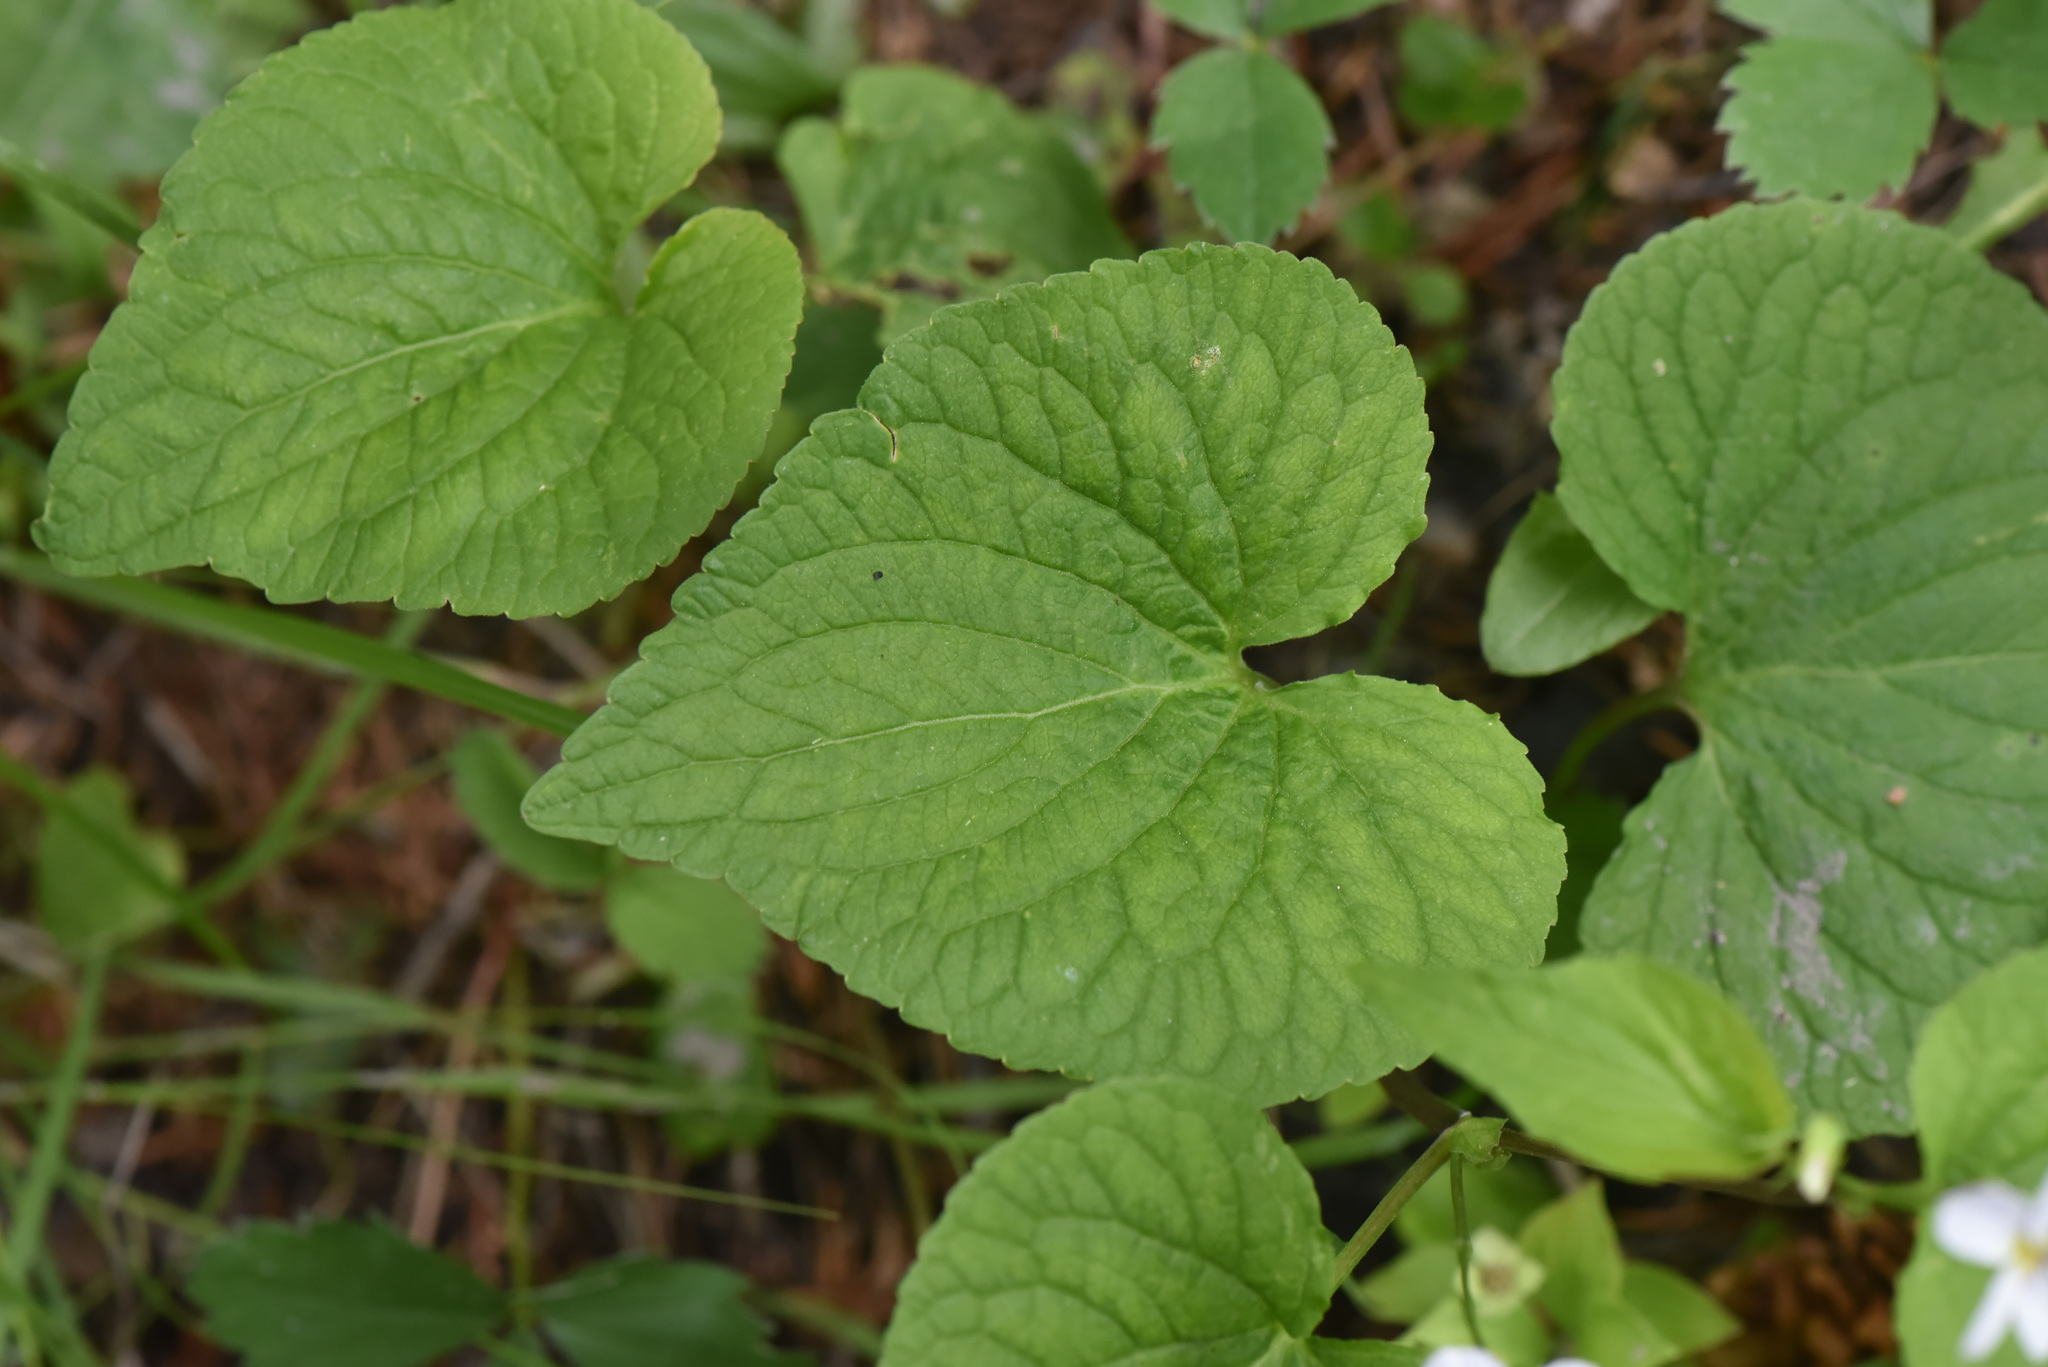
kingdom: Plantae
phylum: Tracheophyta
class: Magnoliopsida
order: Malpighiales
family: Violaceae
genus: Viola
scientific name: Viola canadensis
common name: Canada violet
